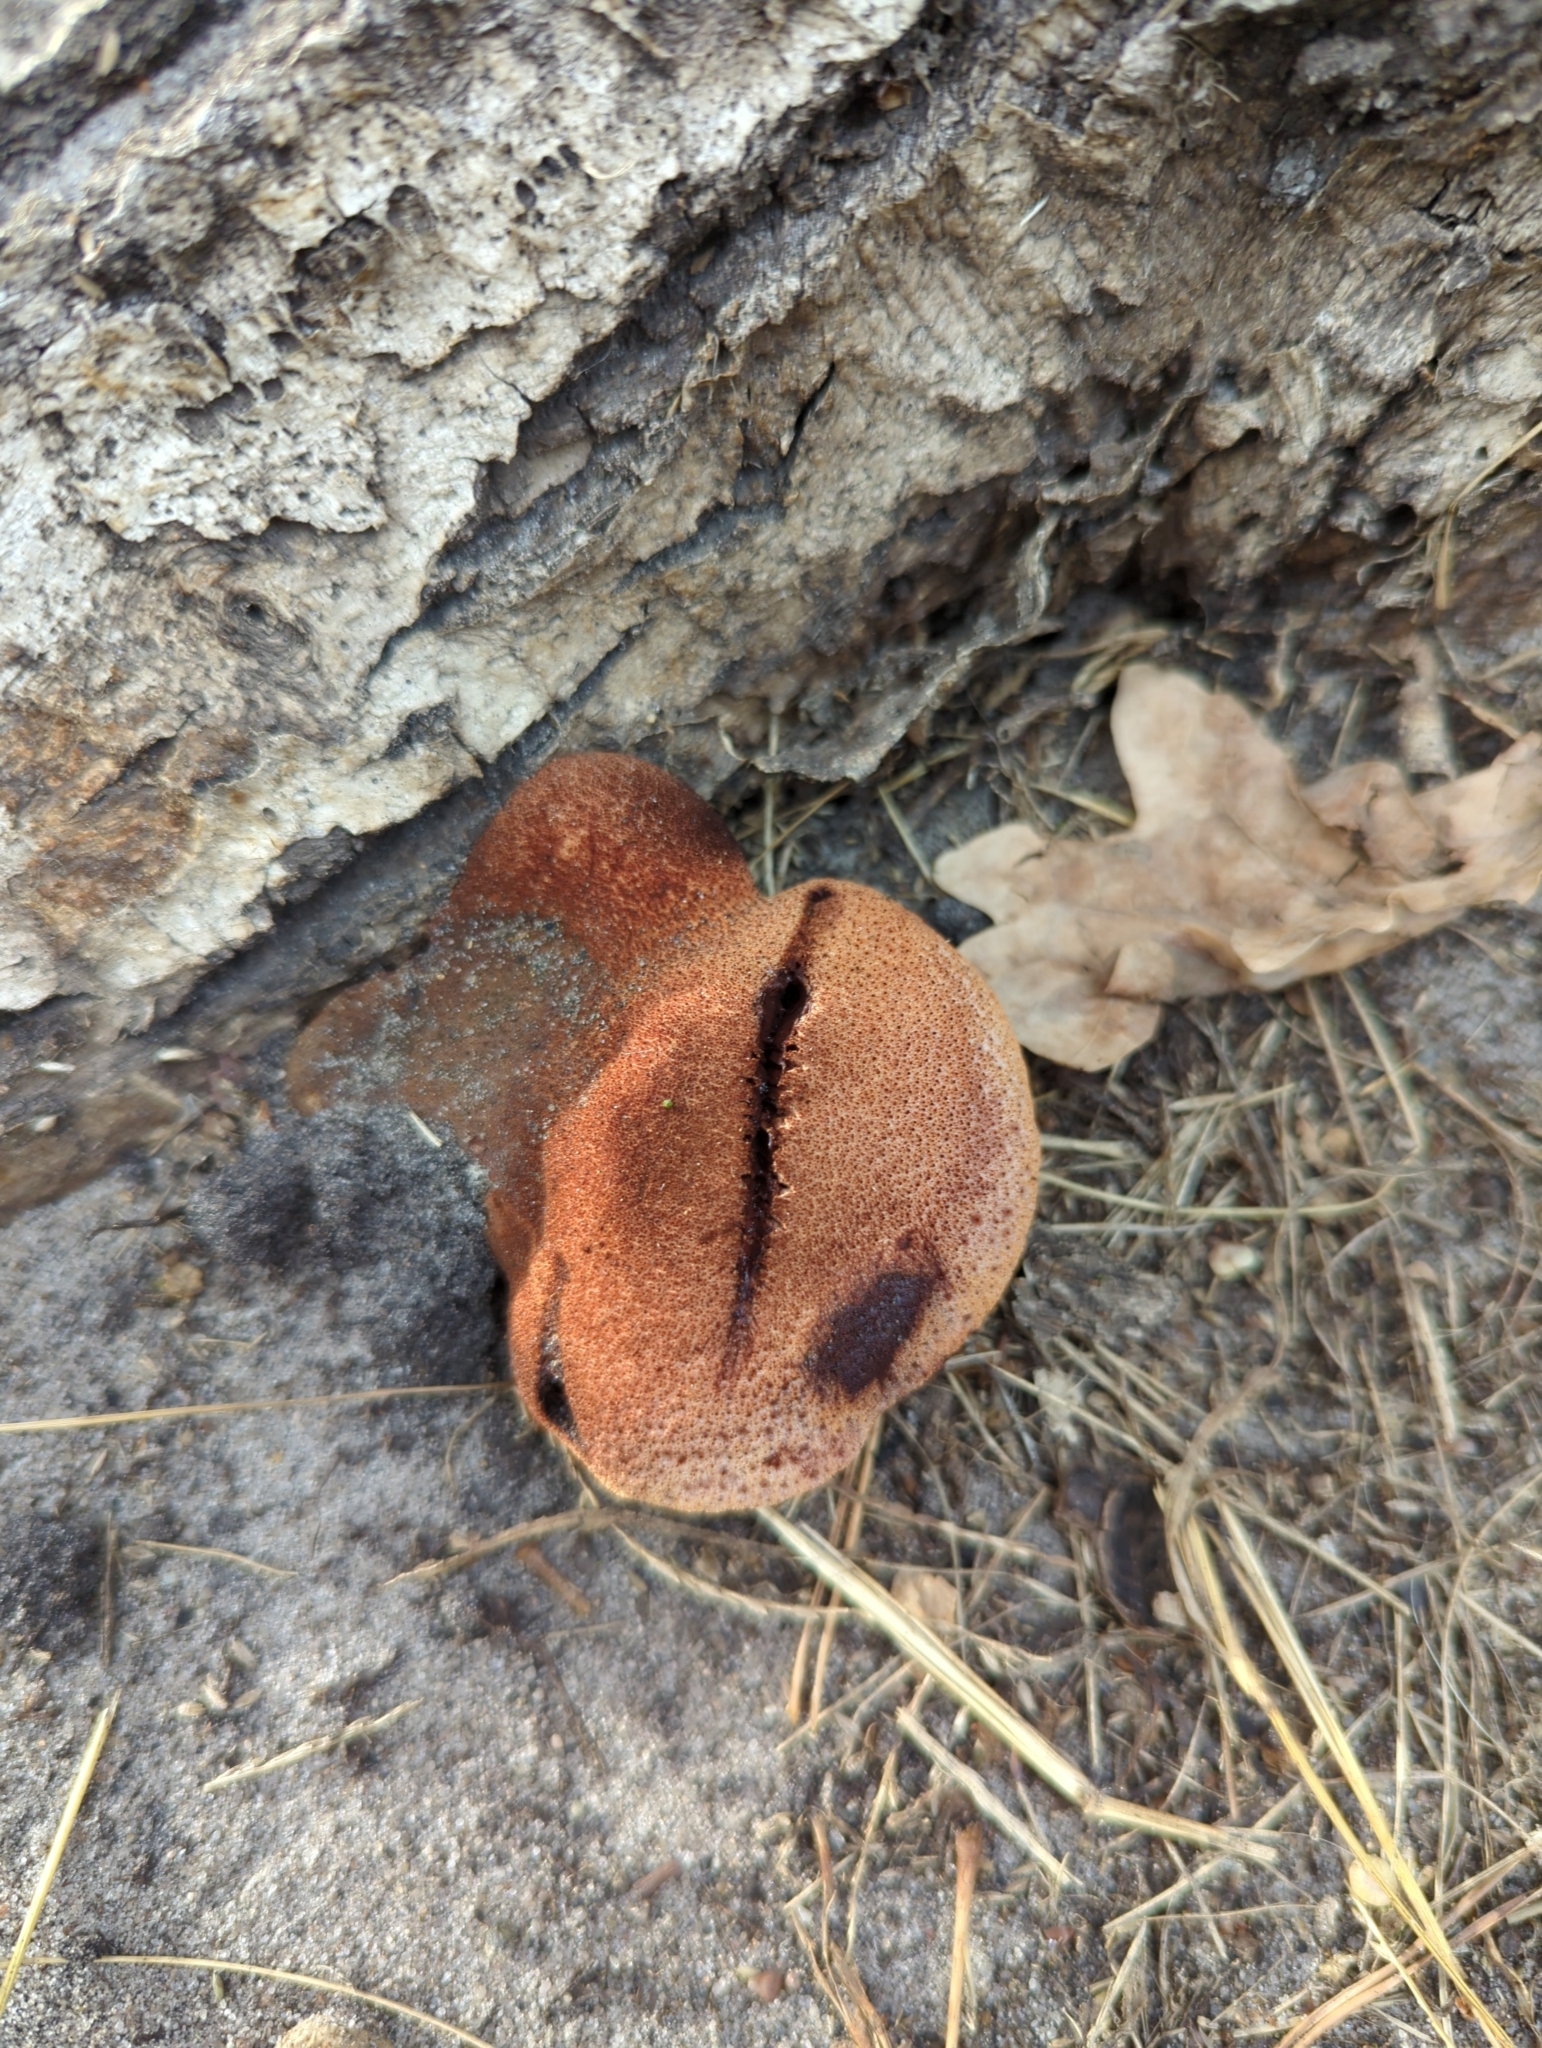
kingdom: Fungi
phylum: Basidiomycota
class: Agaricomycetes
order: Agaricales
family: Fistulinaceae
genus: Fistulina
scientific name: Fistulina hepatica
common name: Beef-steak fungus
